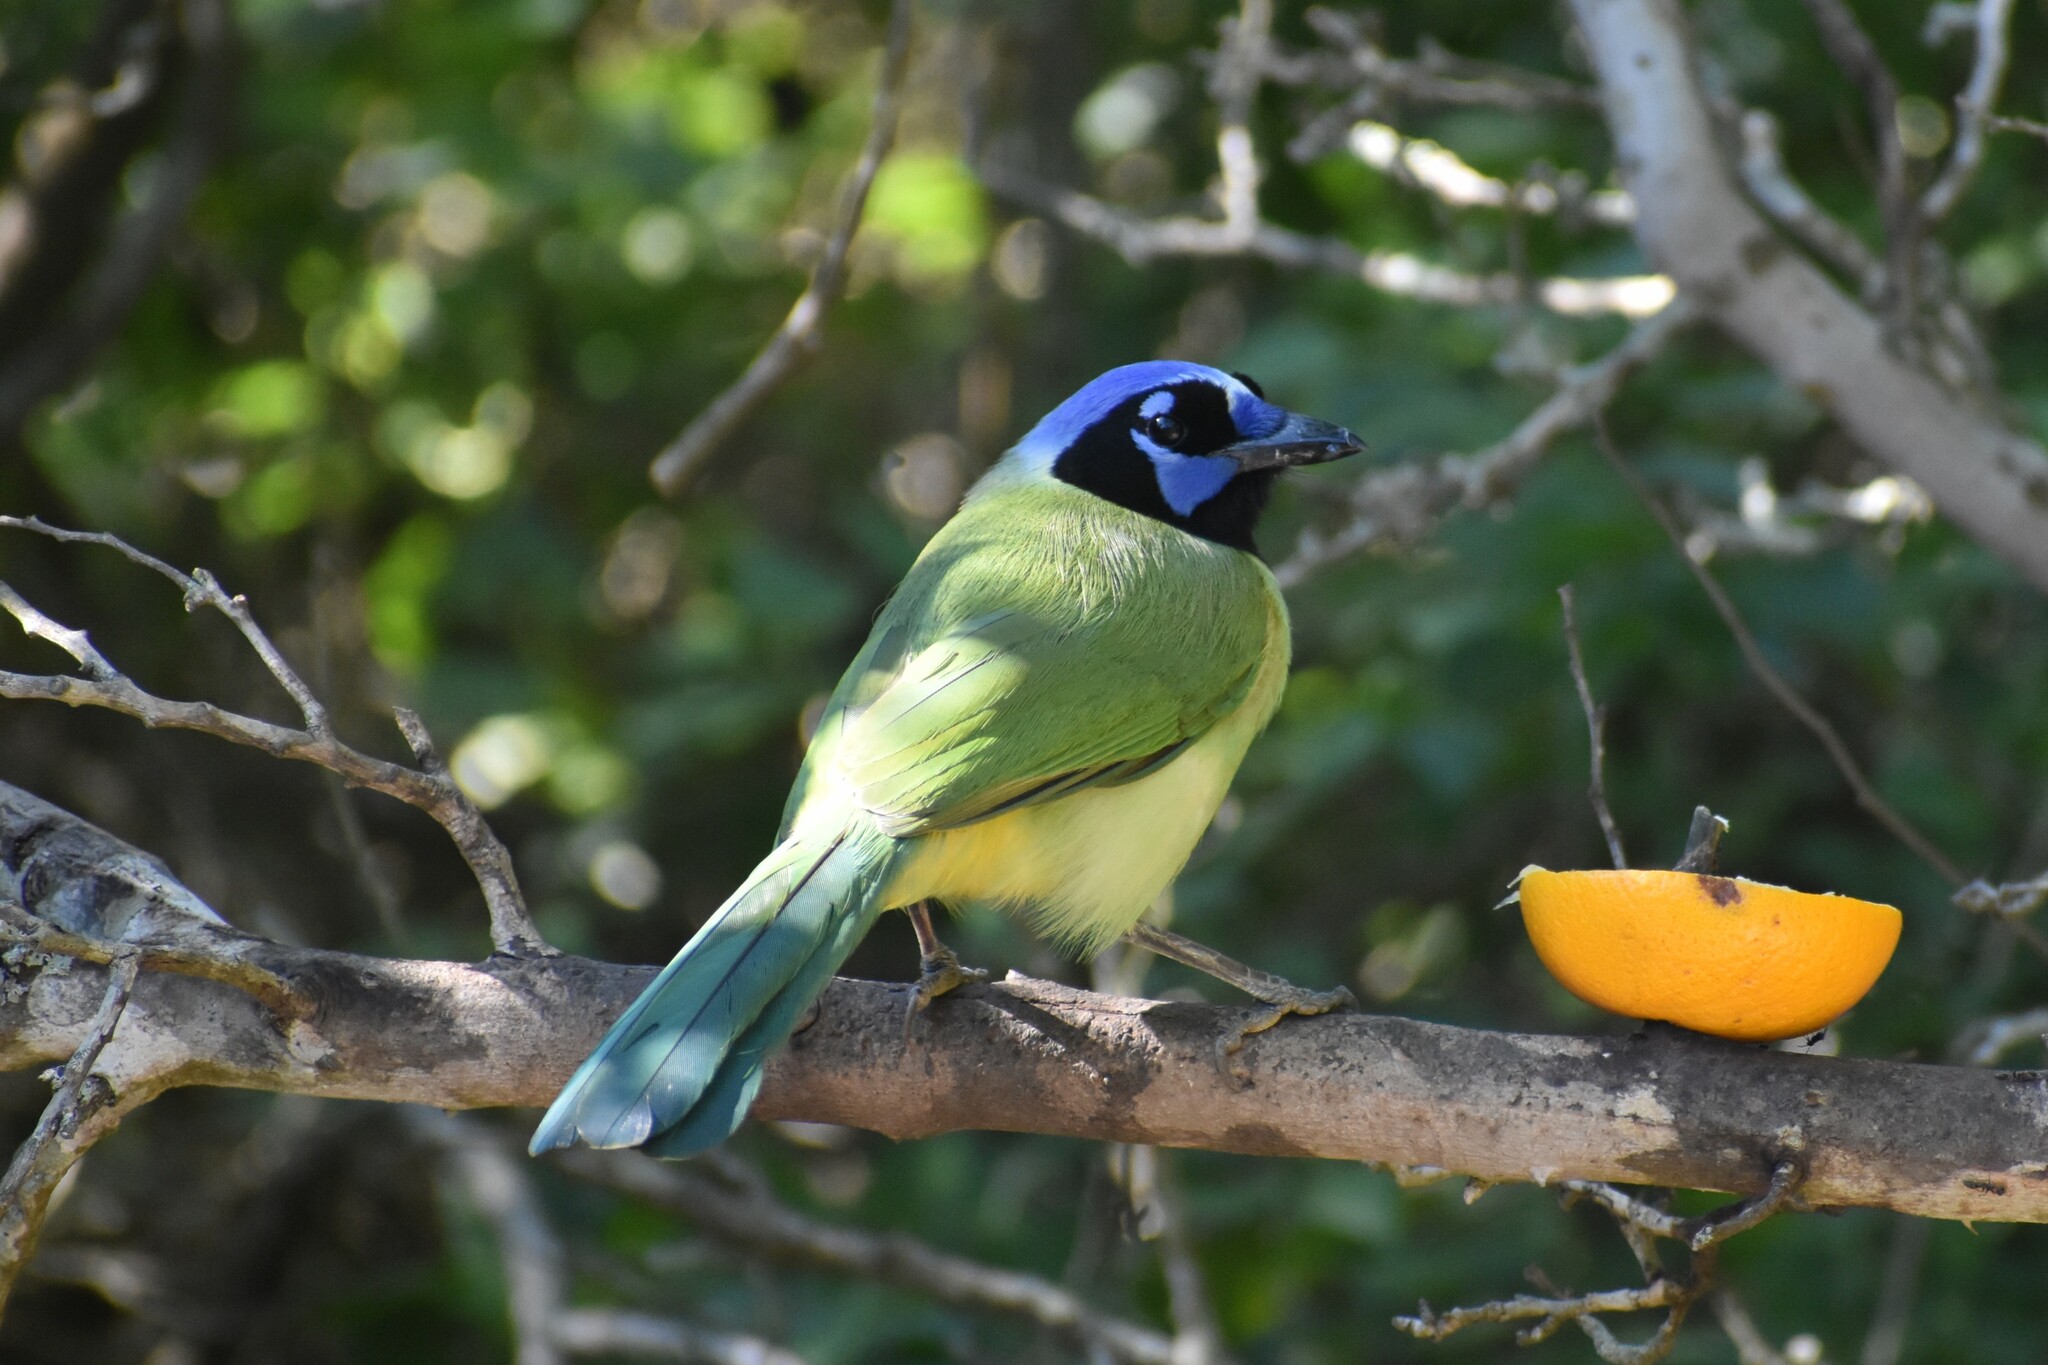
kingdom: Animalia
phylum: Chordata
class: Aves
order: Passeriformes
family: Corvidae
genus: Cyanocorax
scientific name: Cyanocorax yncas
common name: Green jay
